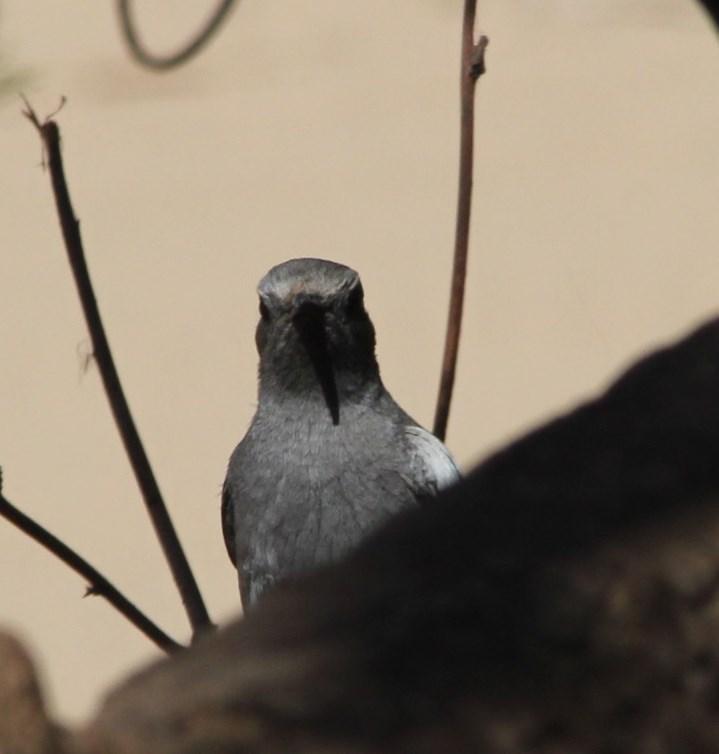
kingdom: Animalia
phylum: Chordata
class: Aves
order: Passeriformes
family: Muscicapidae
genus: Oenanthe
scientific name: Oenanthe monticola
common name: Mountain wheatear
